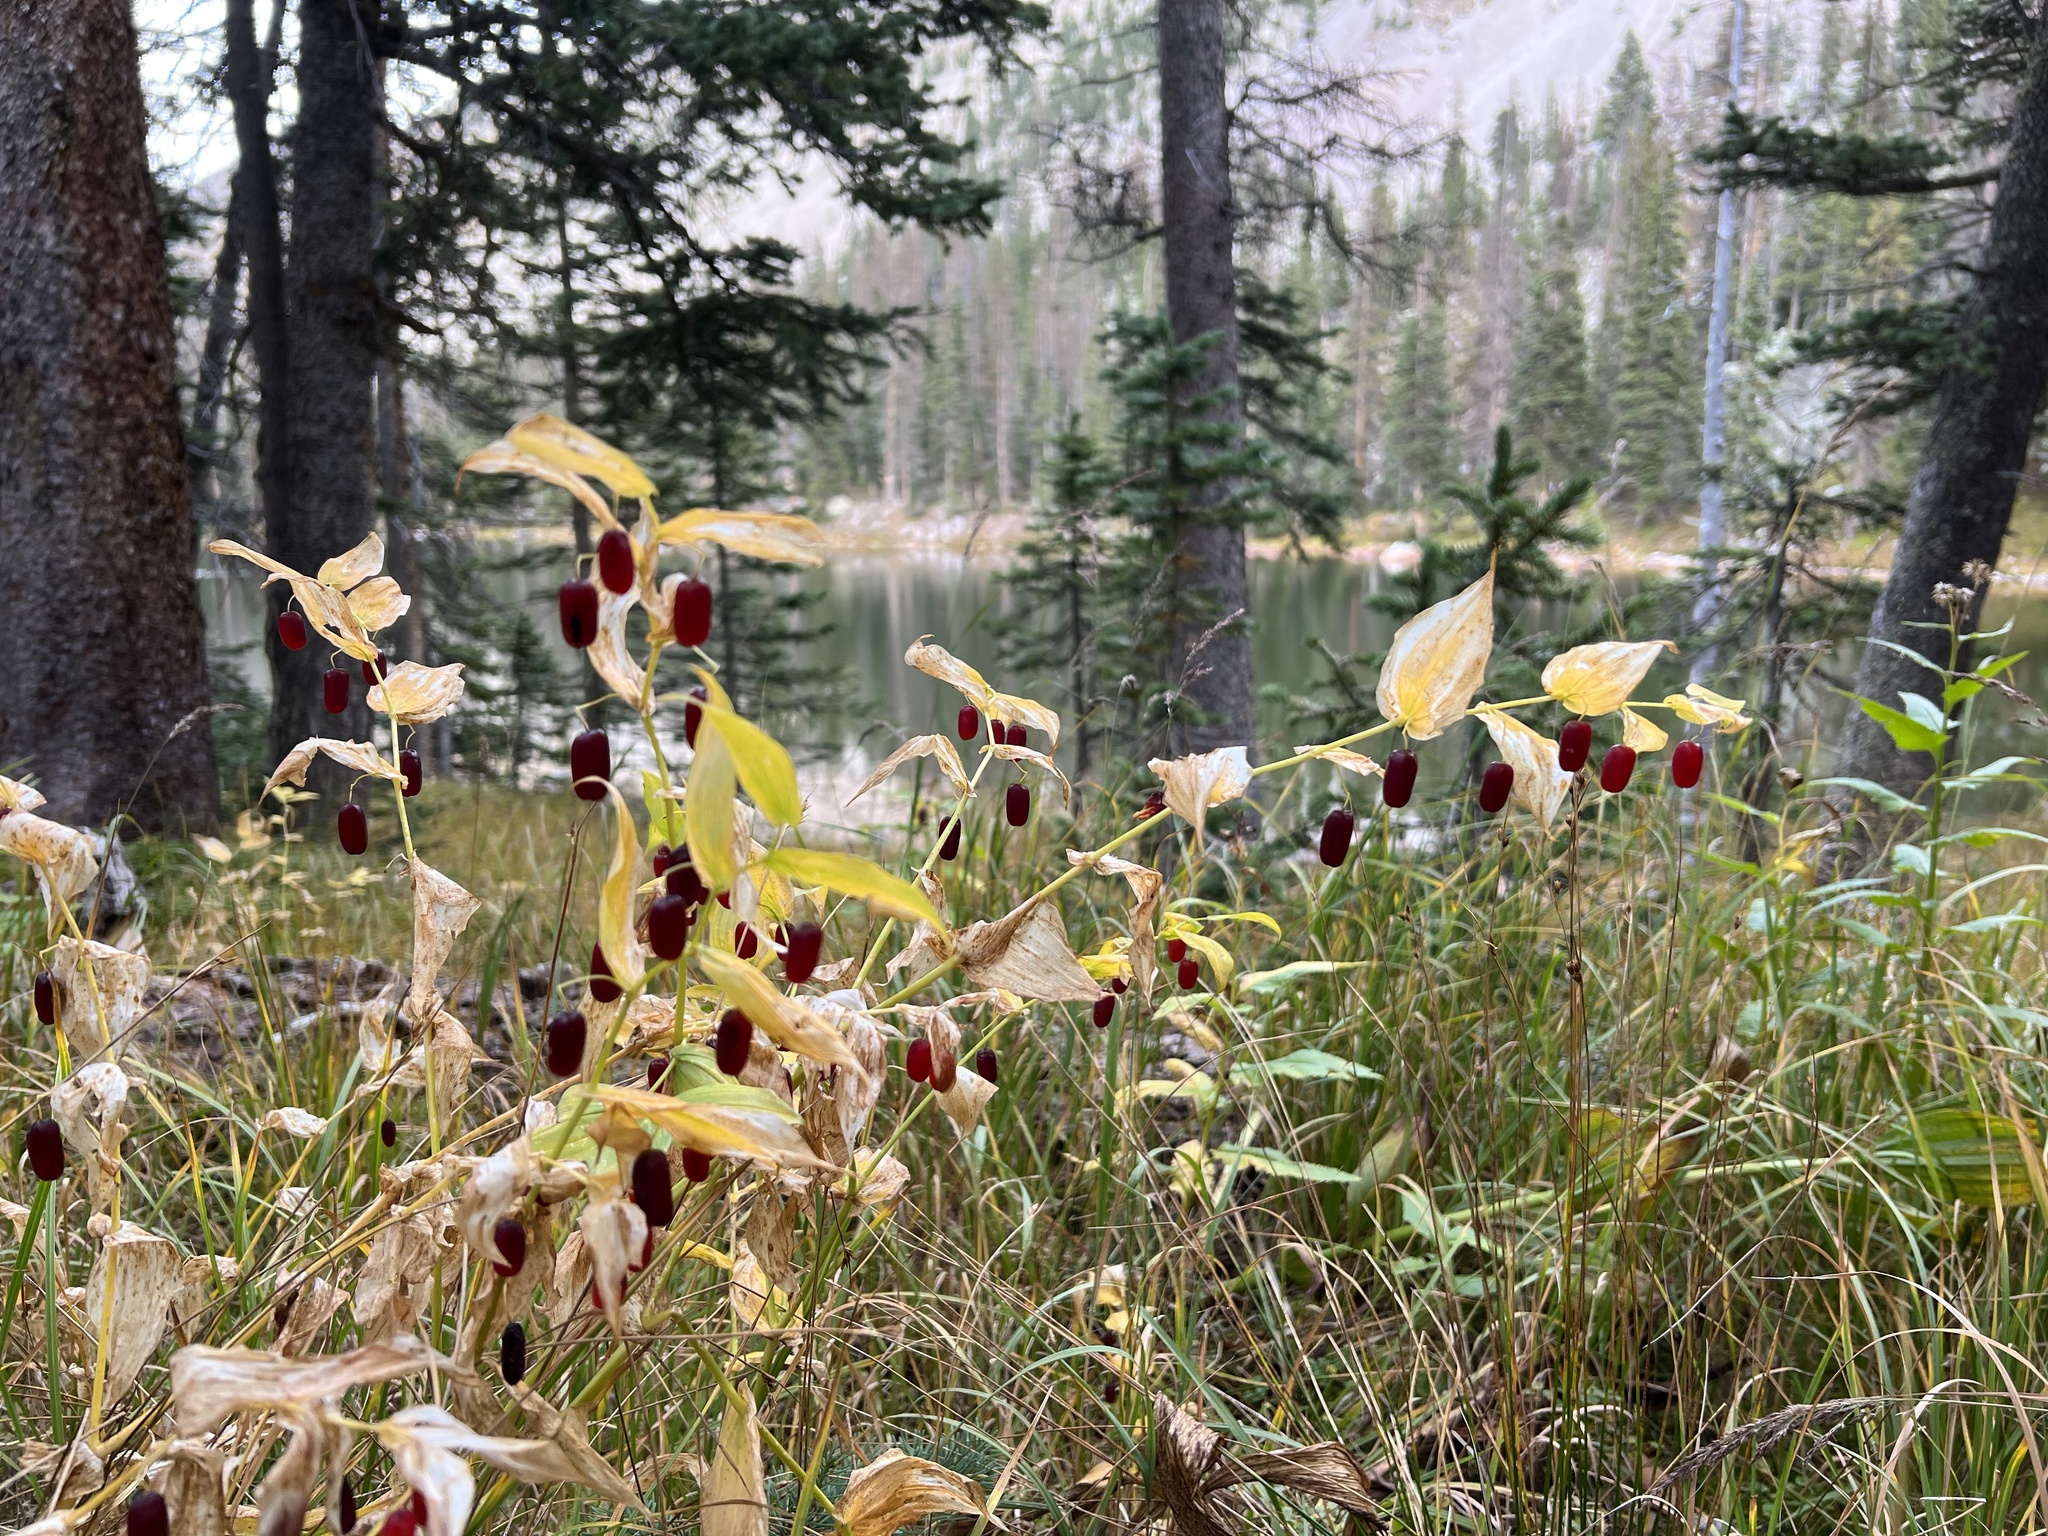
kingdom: Plantae
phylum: Tracheophyta
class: Liliopsida
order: Liliales
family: Liliaceae
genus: Streptopus
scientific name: Streptopus amplexifolius
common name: Clasp twisted stalk
